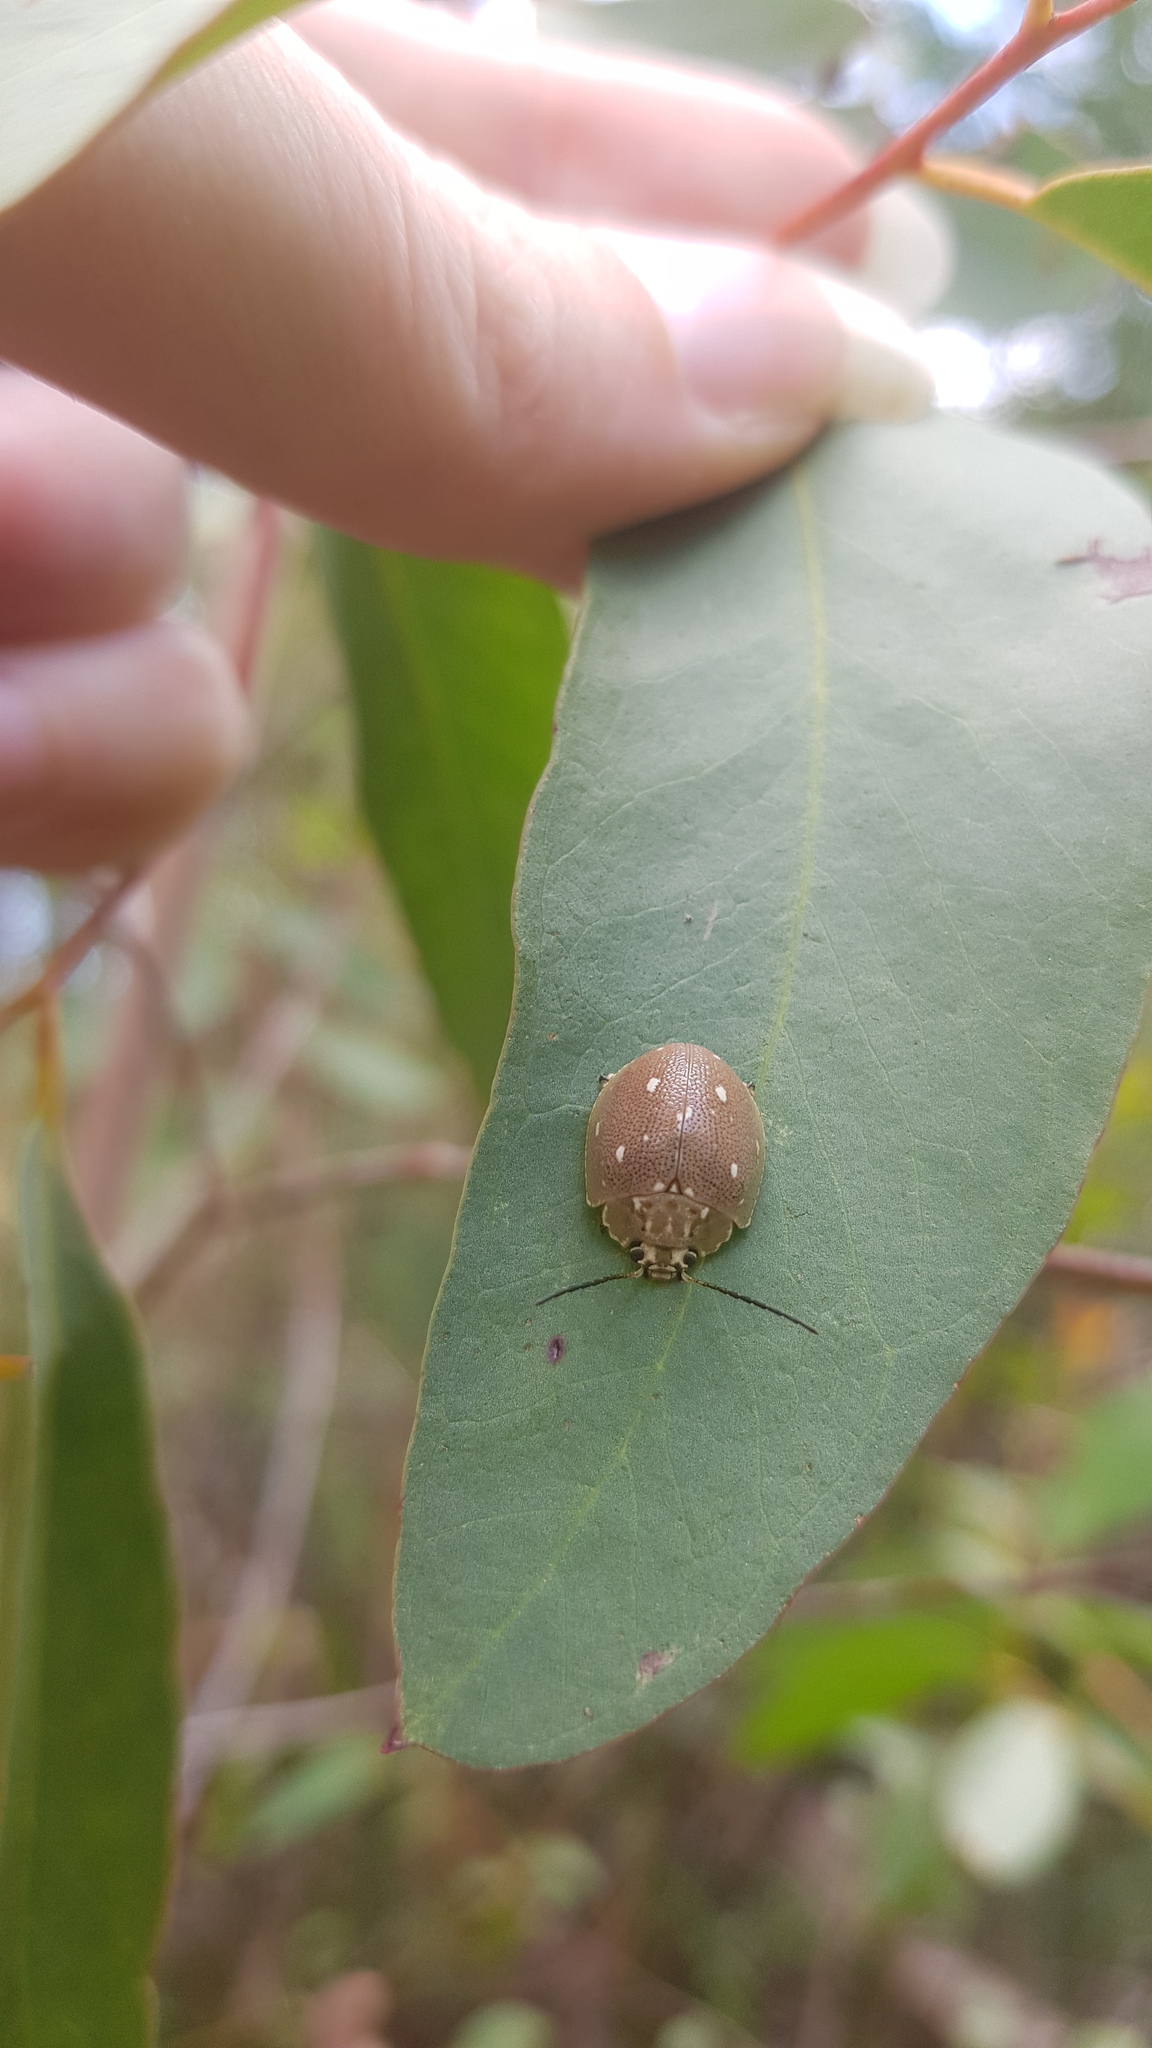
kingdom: Animalia
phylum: Arthropoda
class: Insecta
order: Coleoptera
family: Chrysomelidae
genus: Paropsis
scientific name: Paropsis aegrota
